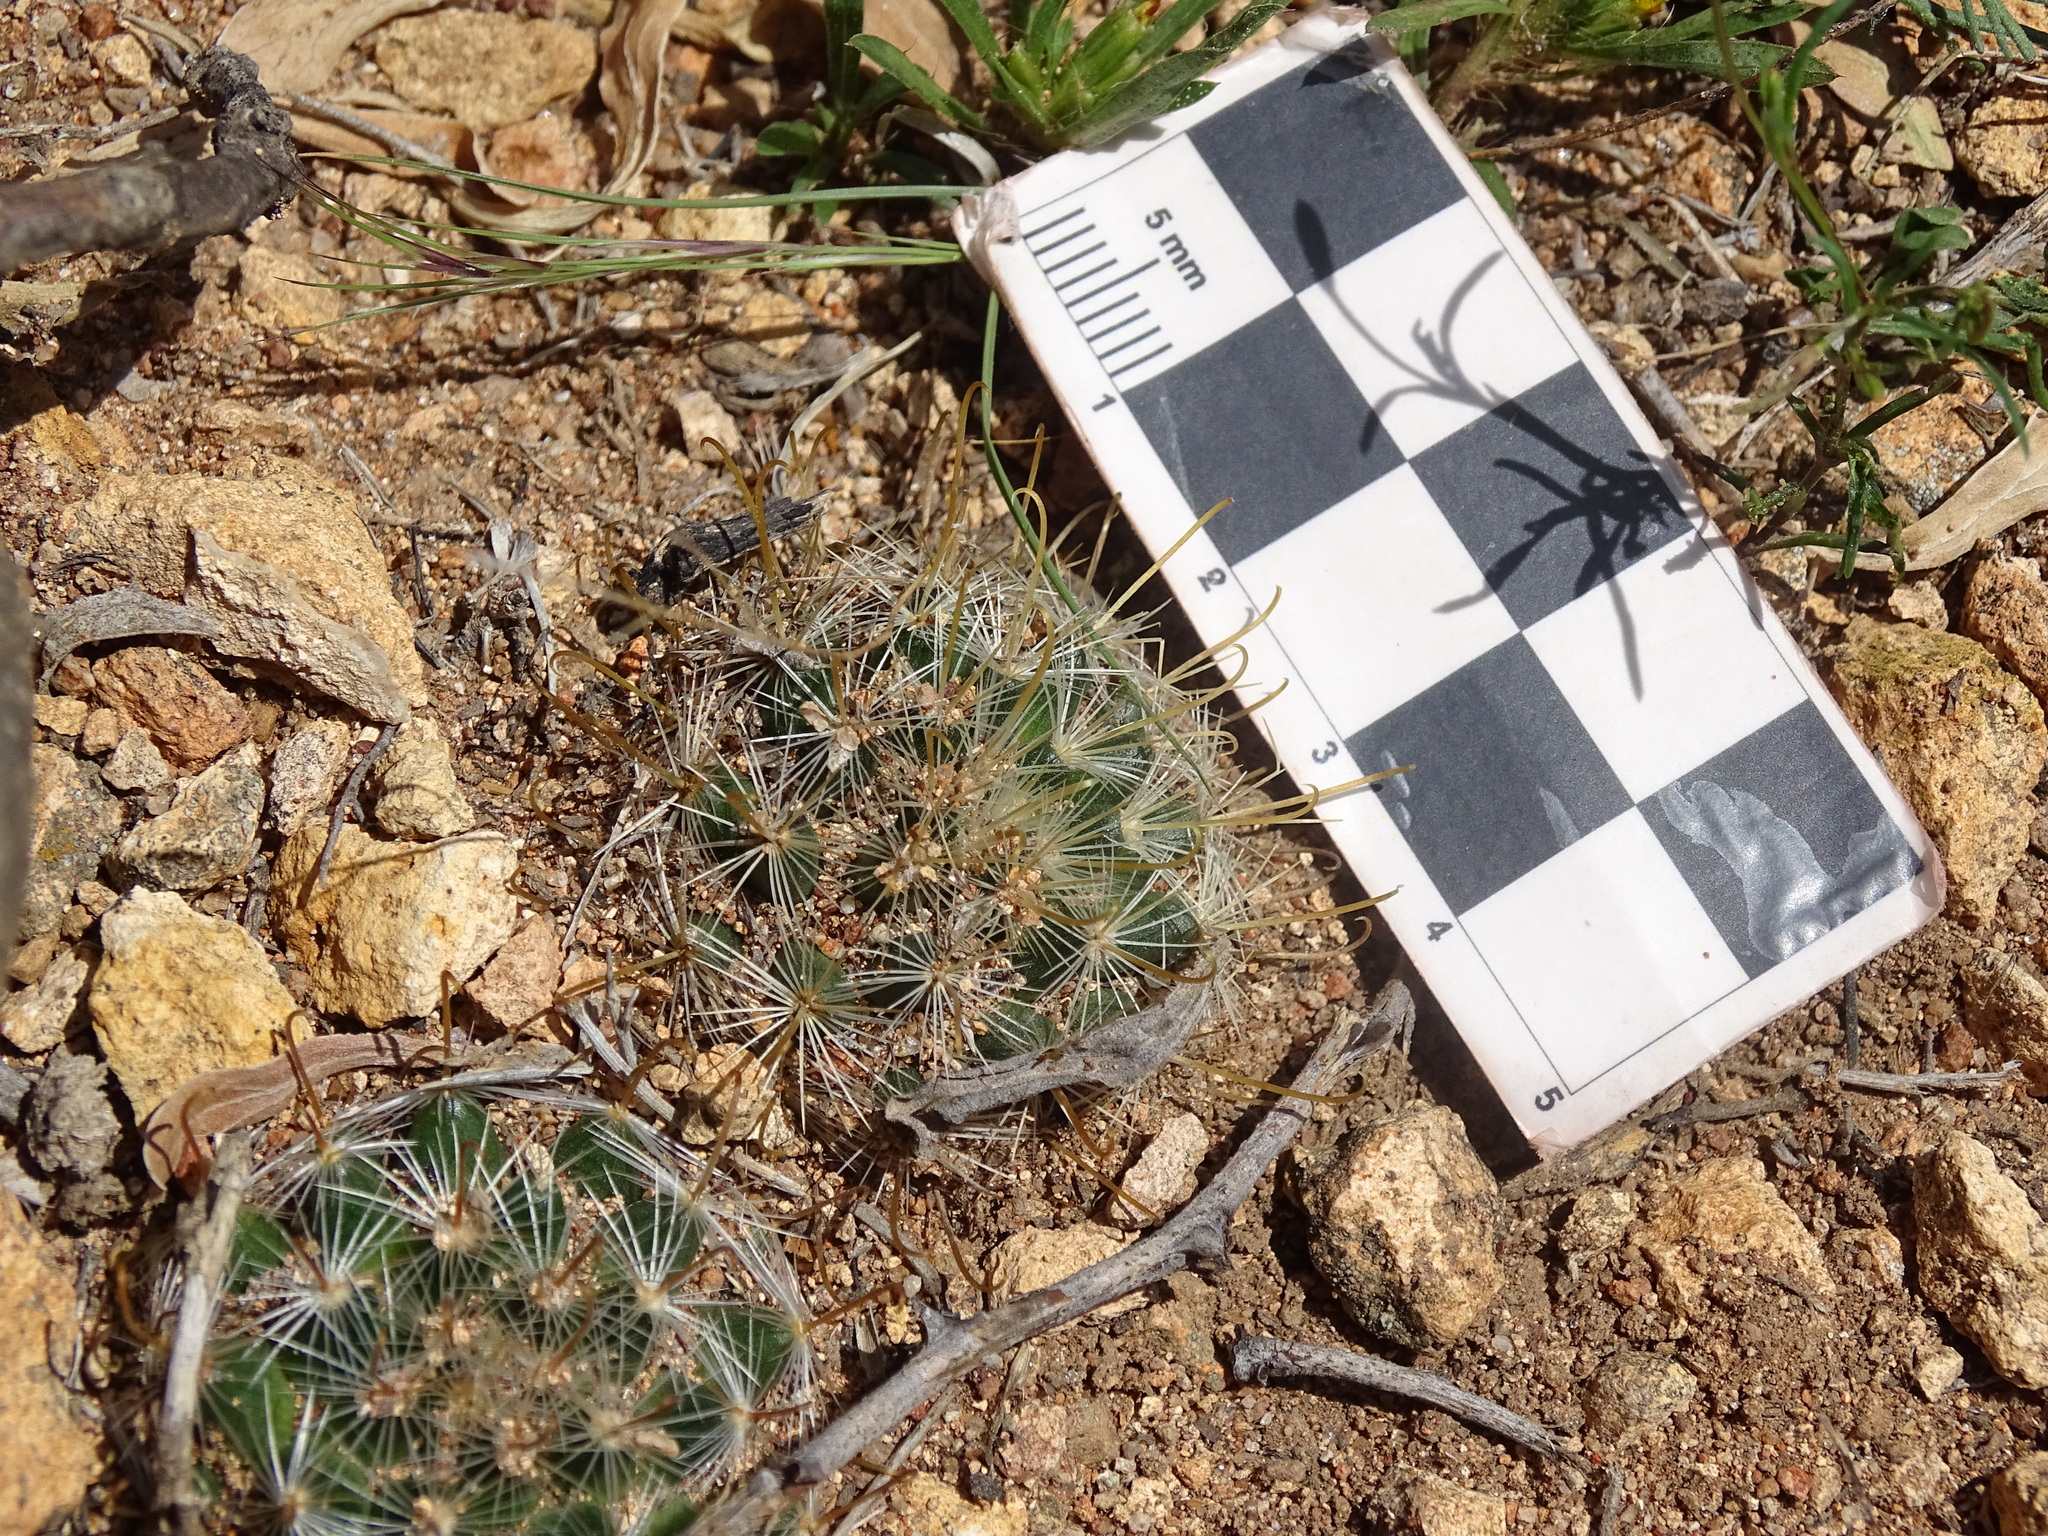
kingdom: Plantae
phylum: Tracheophyta
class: Magnoliopsida
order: Caryophyllales
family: Cactaceae
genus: Mammillaria
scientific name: Mammillaria jaliscana
